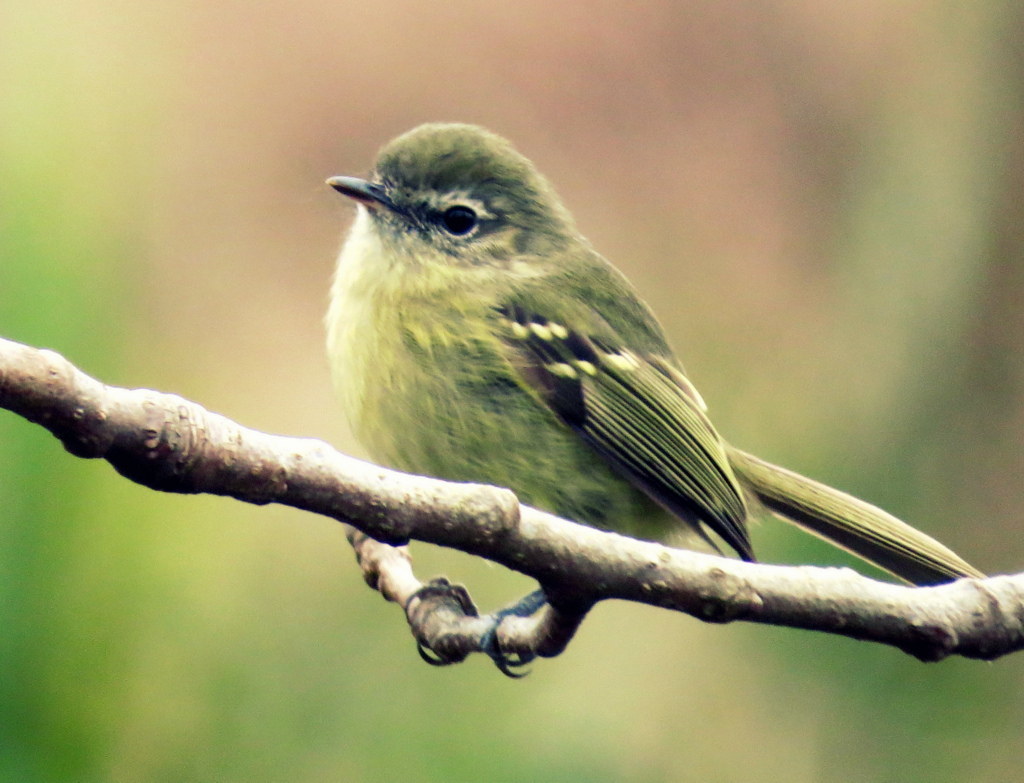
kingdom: Animalia
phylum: Chordata
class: Aves
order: Passeriformes
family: Tyrannidae
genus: Phylloscartes
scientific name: Phylloscartes ventralis
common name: Mottle-cheeked tyrannulet
